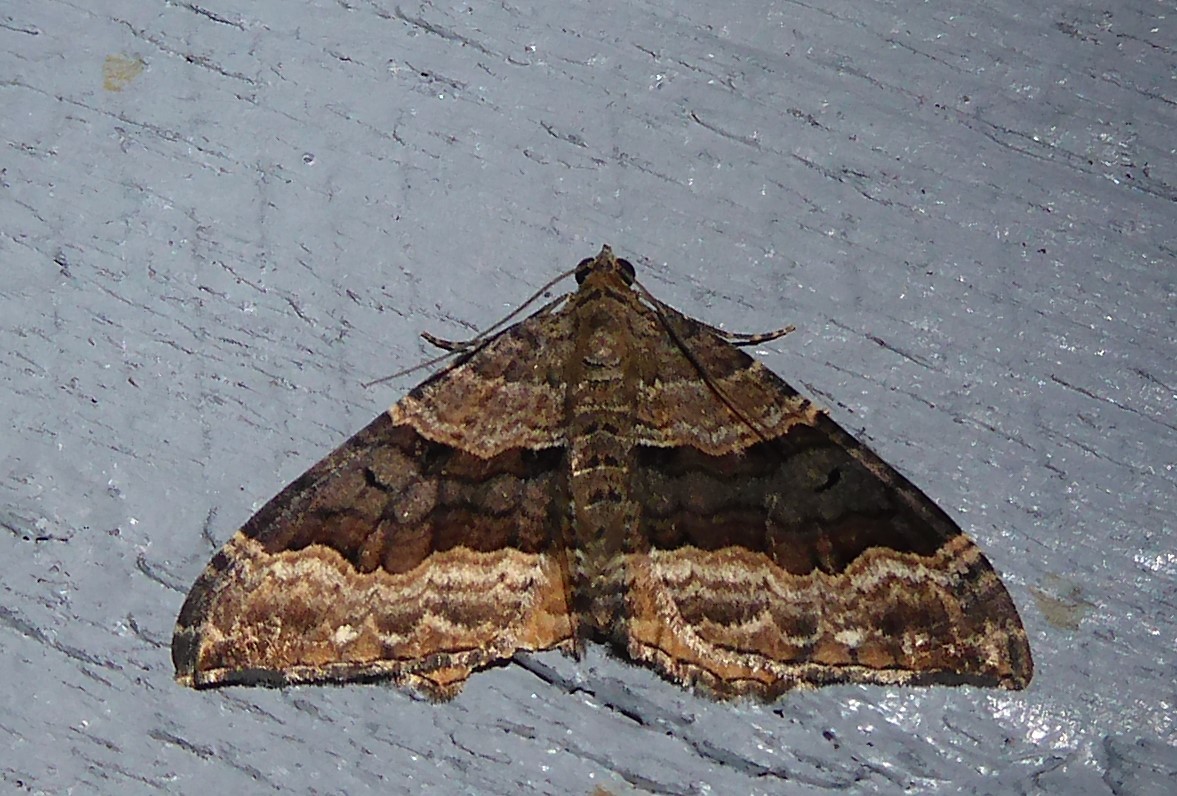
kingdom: Animalia
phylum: Arthropoda
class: Insecta
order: Lepidoptera
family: Geometridae
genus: Hydriomena
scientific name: Hydriomena deltoidata
